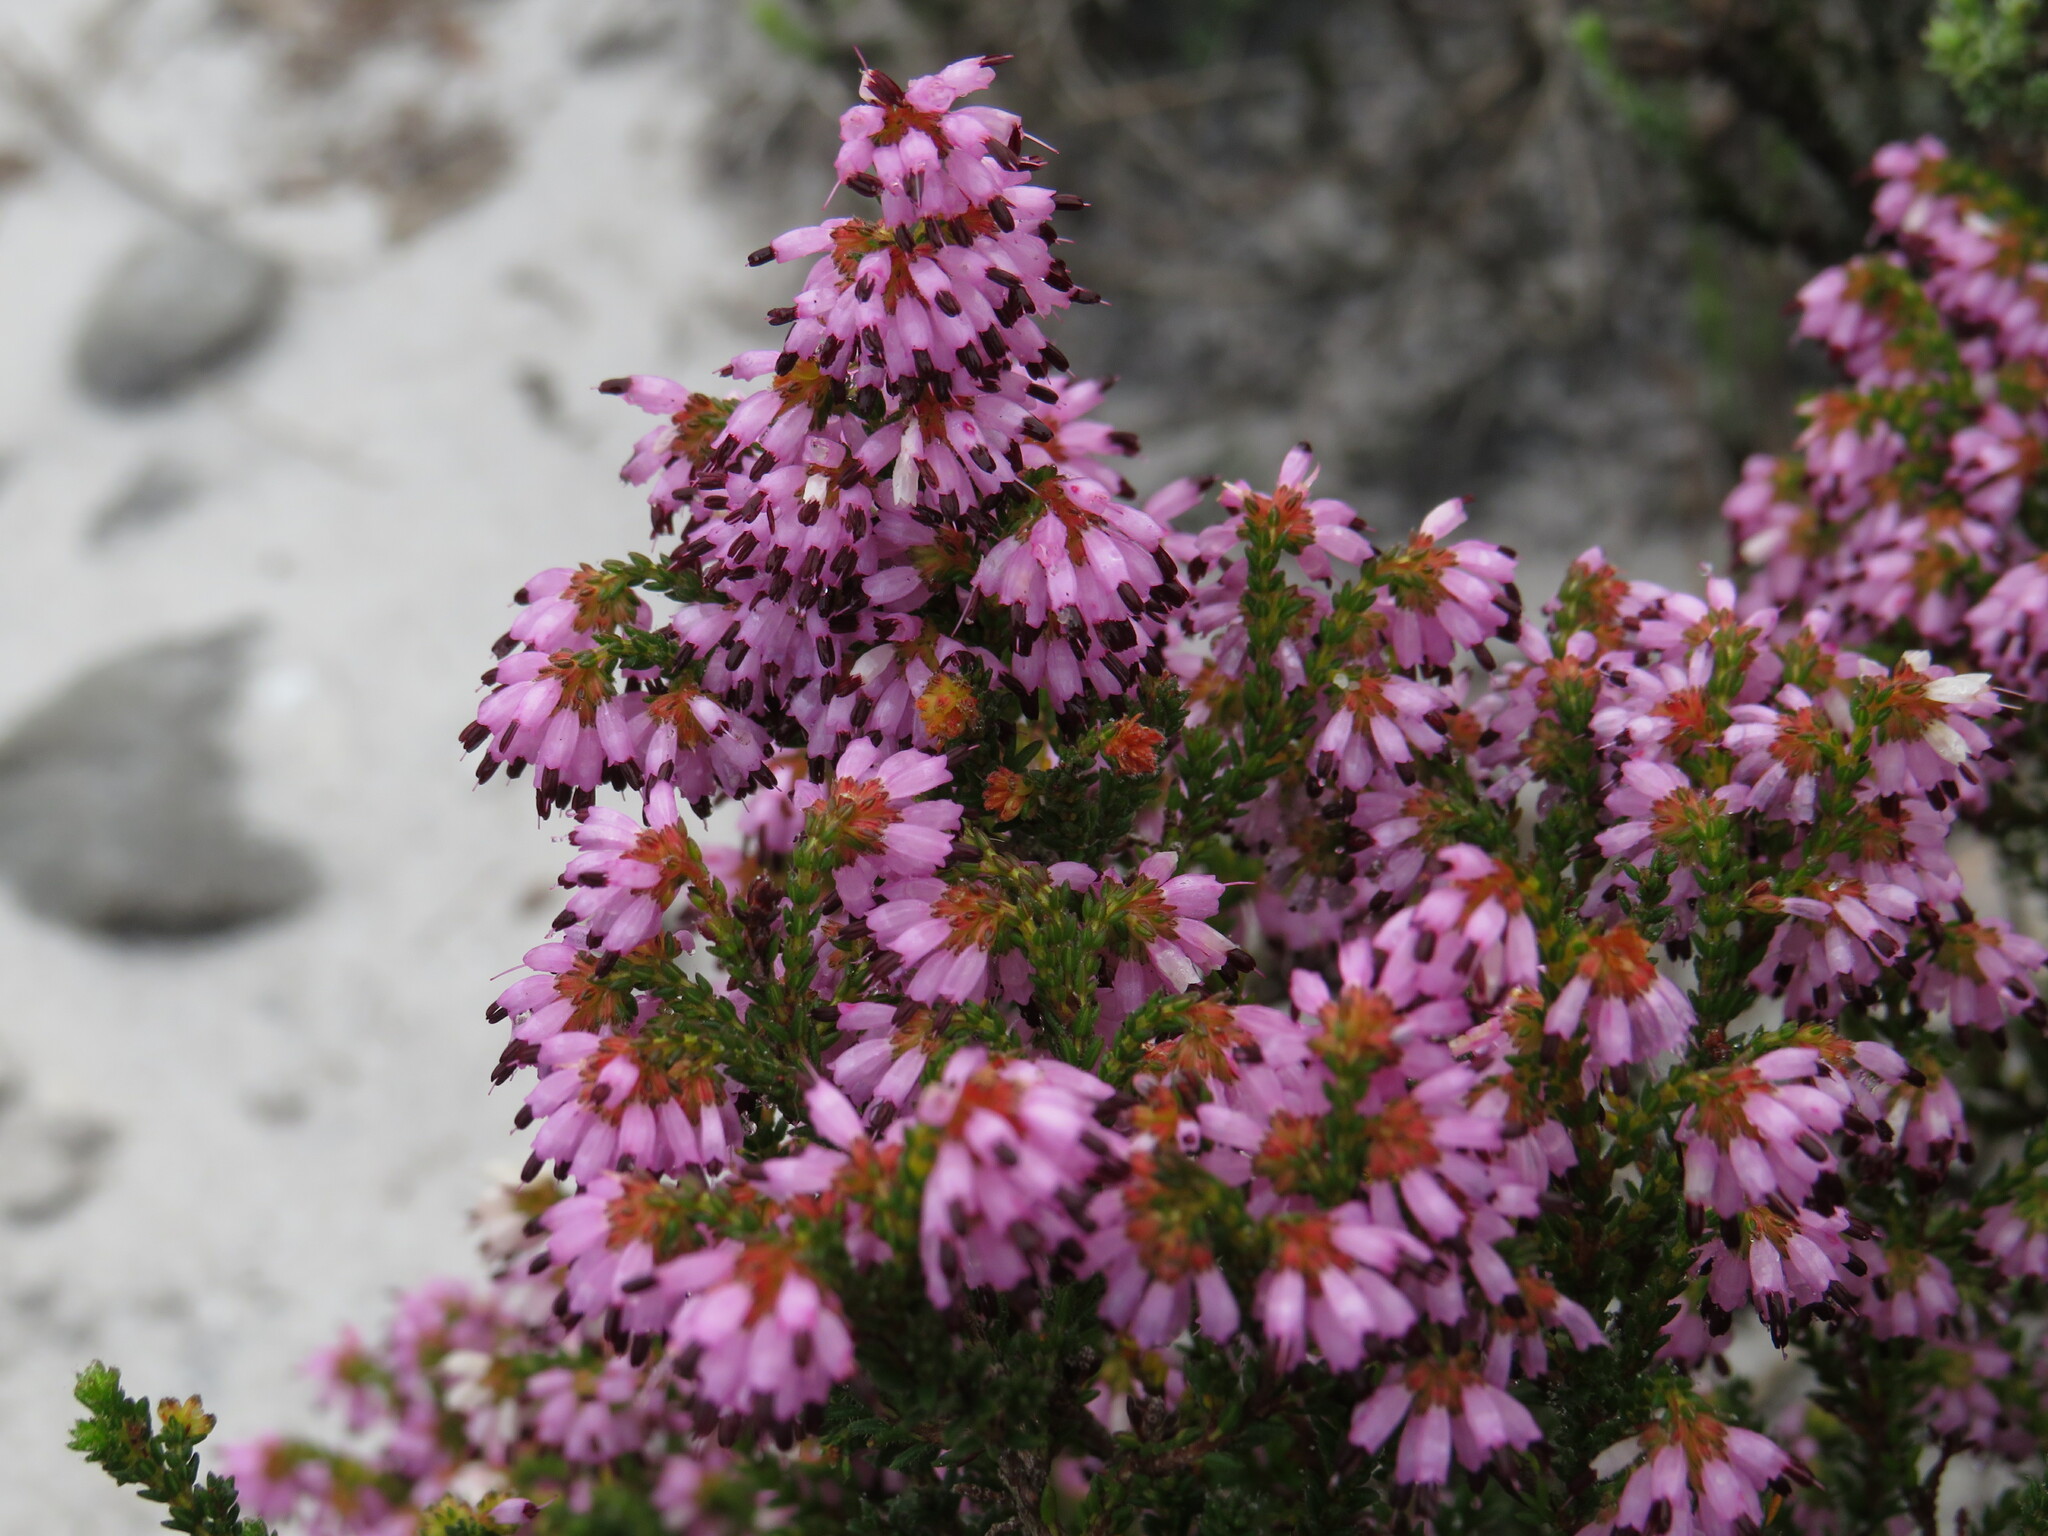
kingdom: Plantae
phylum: Tracheophyta
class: Magnoliopsida
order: Ericales
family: Ericaceae
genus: Erica
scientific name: Erica ericoides
